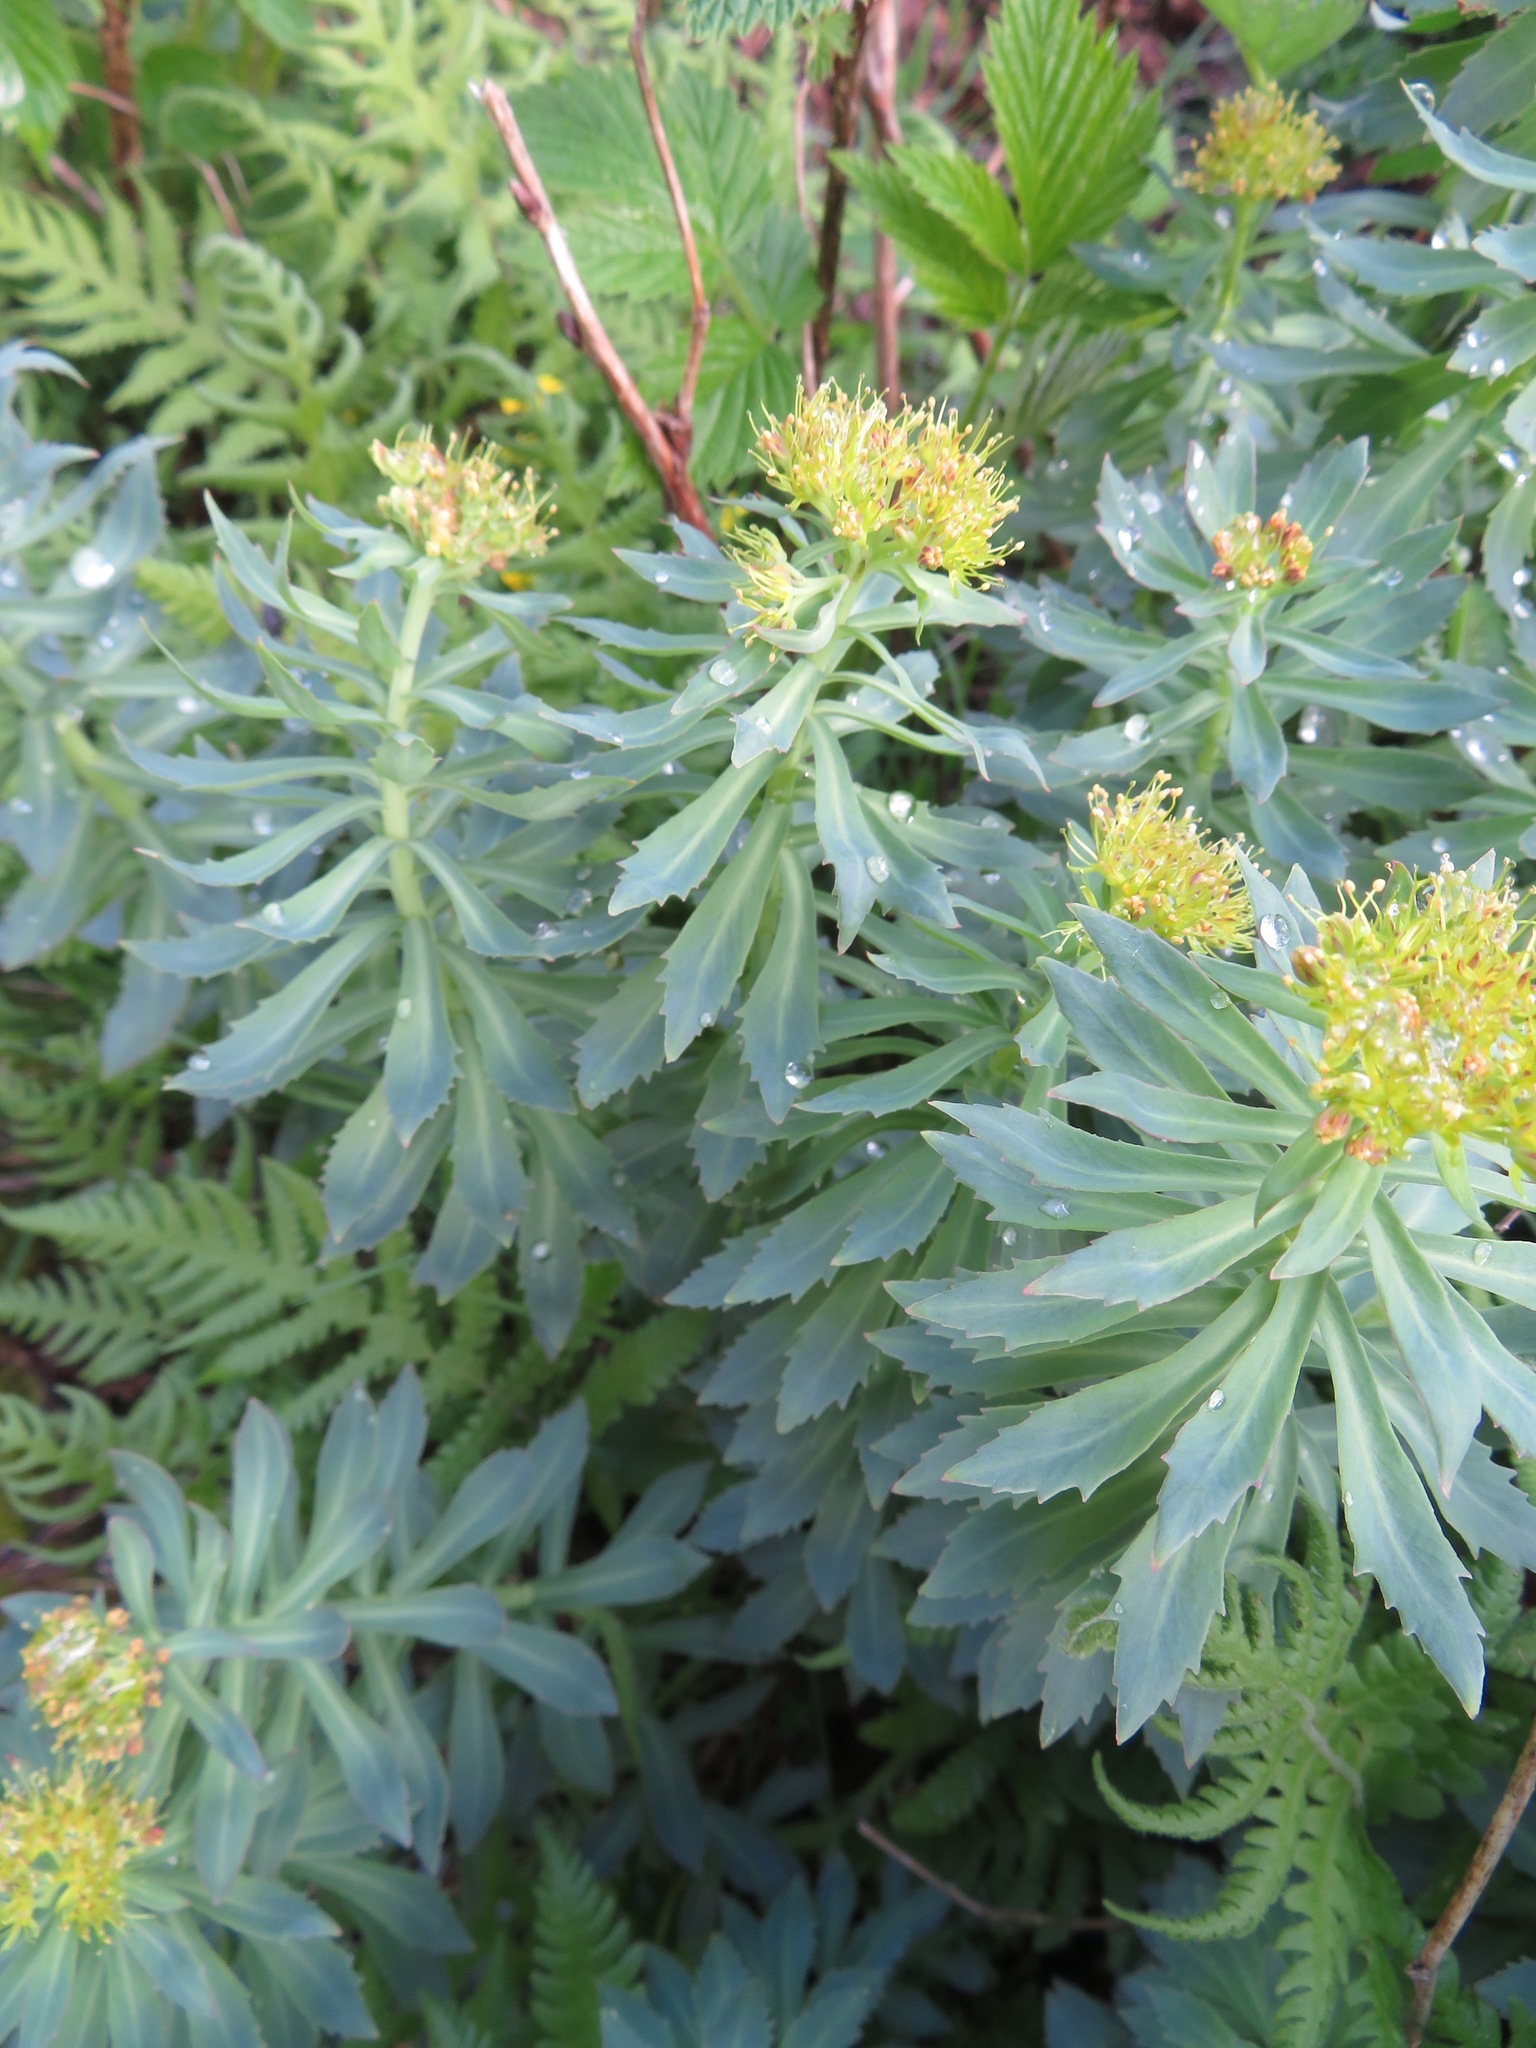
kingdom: Plantae
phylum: Tracheophyta
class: Magnoliopsida
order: Saxifragales
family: Crassulaceae
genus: Rhodiola
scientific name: Rhodiola rosea
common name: Roseroot
